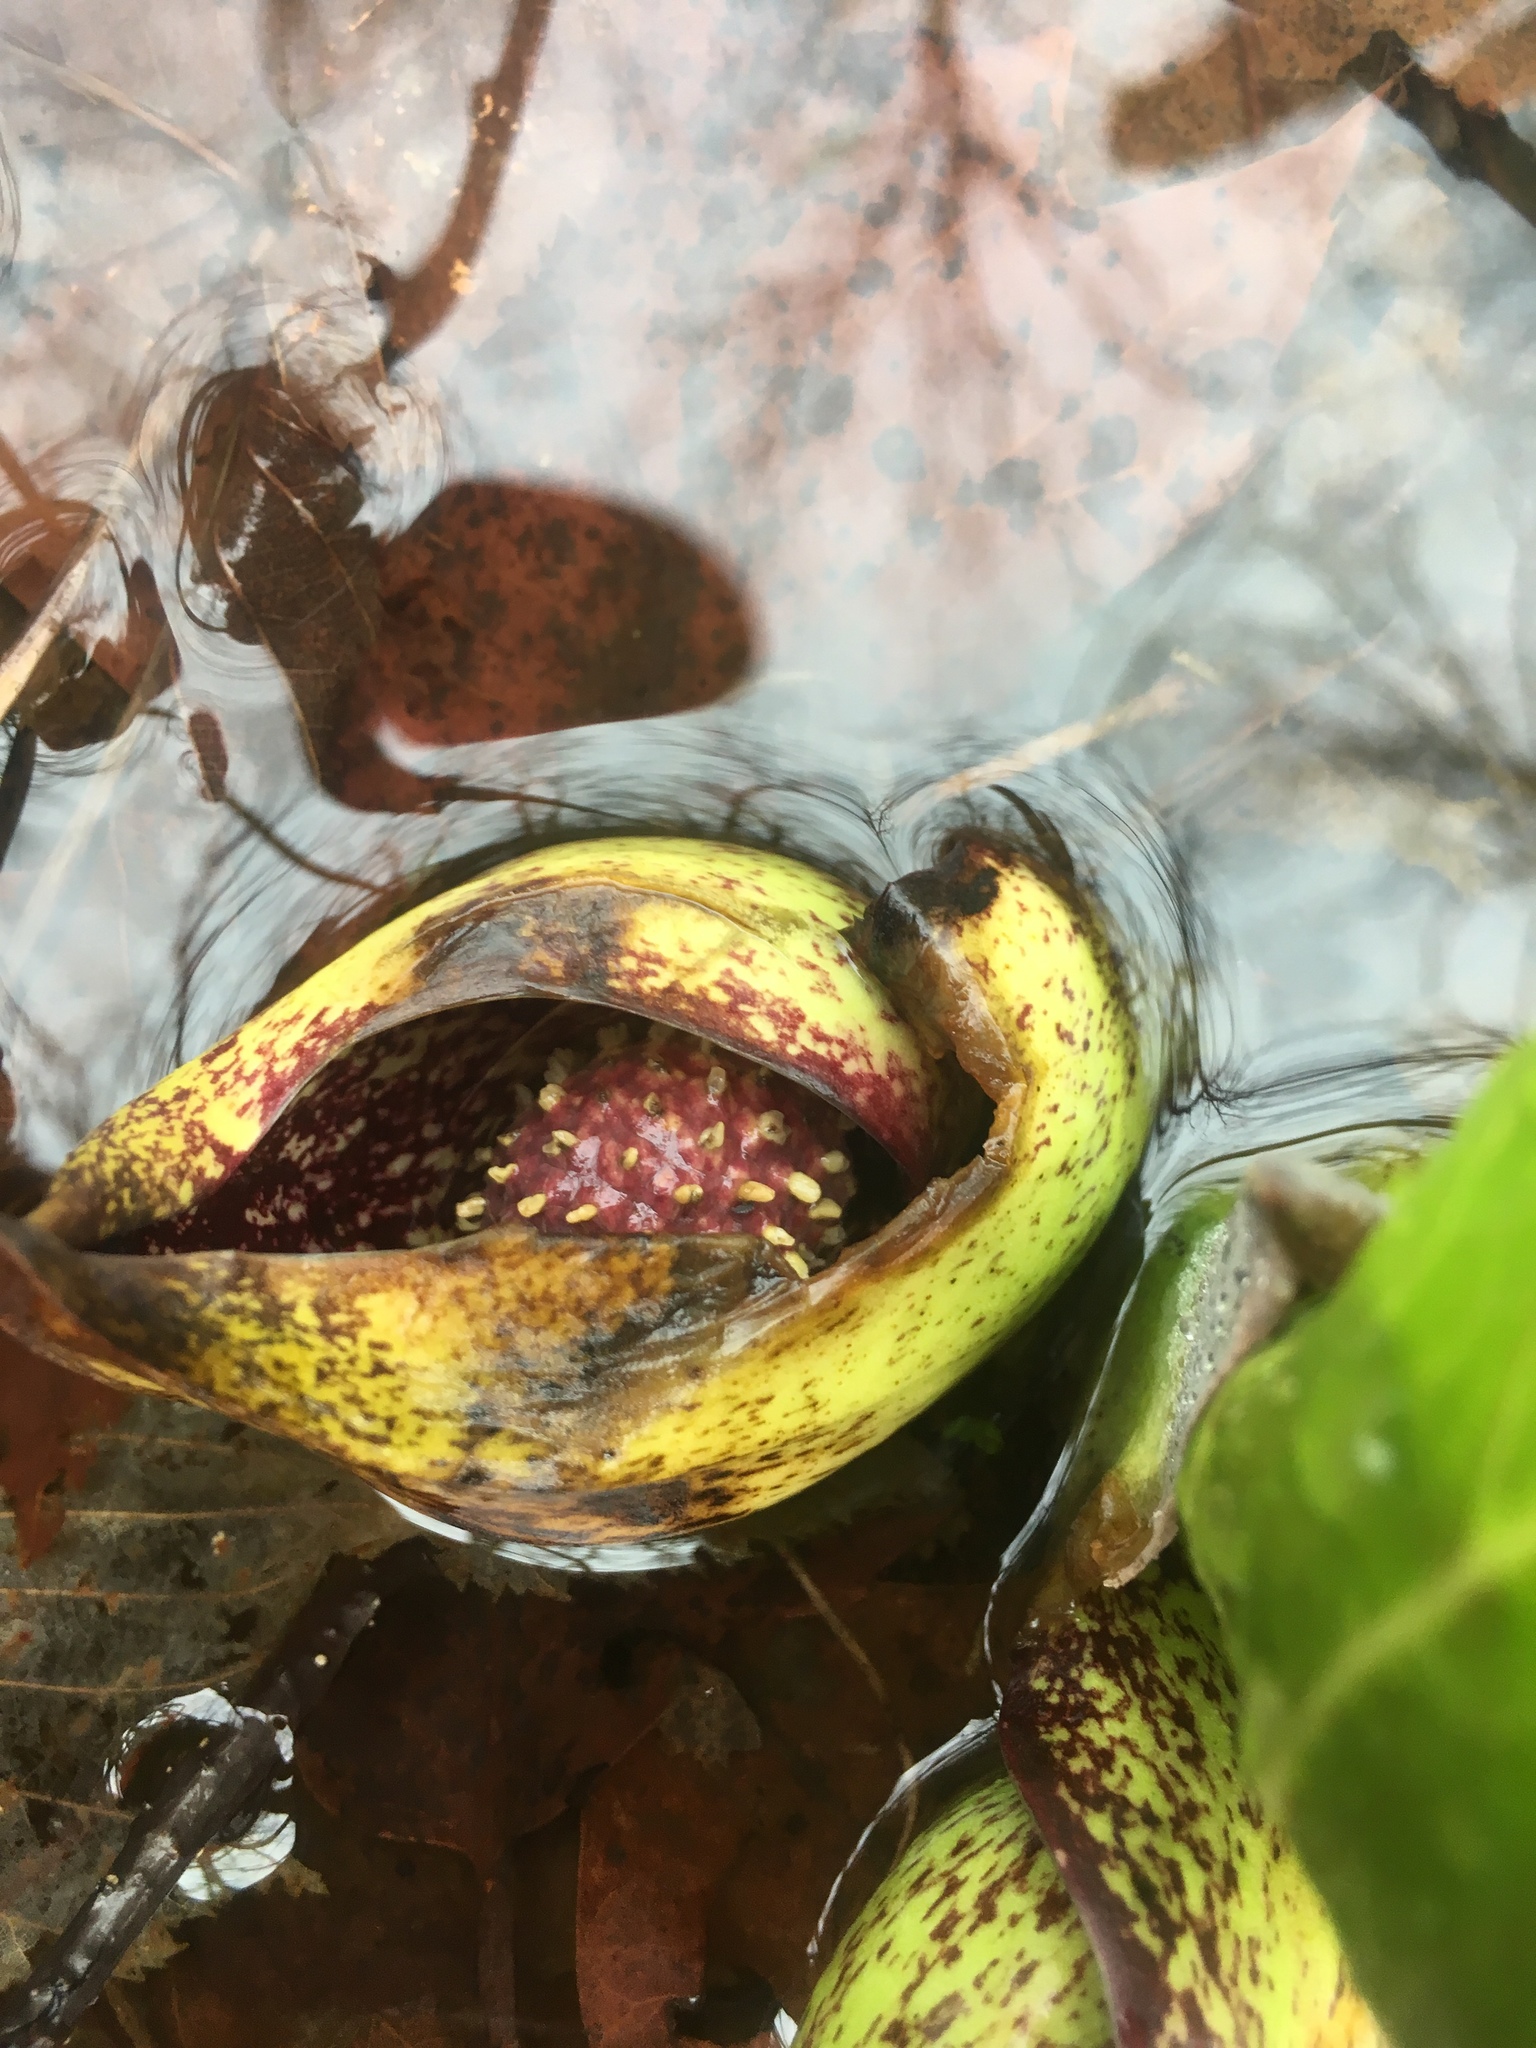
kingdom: Plantae
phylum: Tracheophyta
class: Liliopsida
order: Alismatales
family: Araceae
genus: Symplocarpus
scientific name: Symplocarpus foetidus
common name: Eastern skunk cabbage
